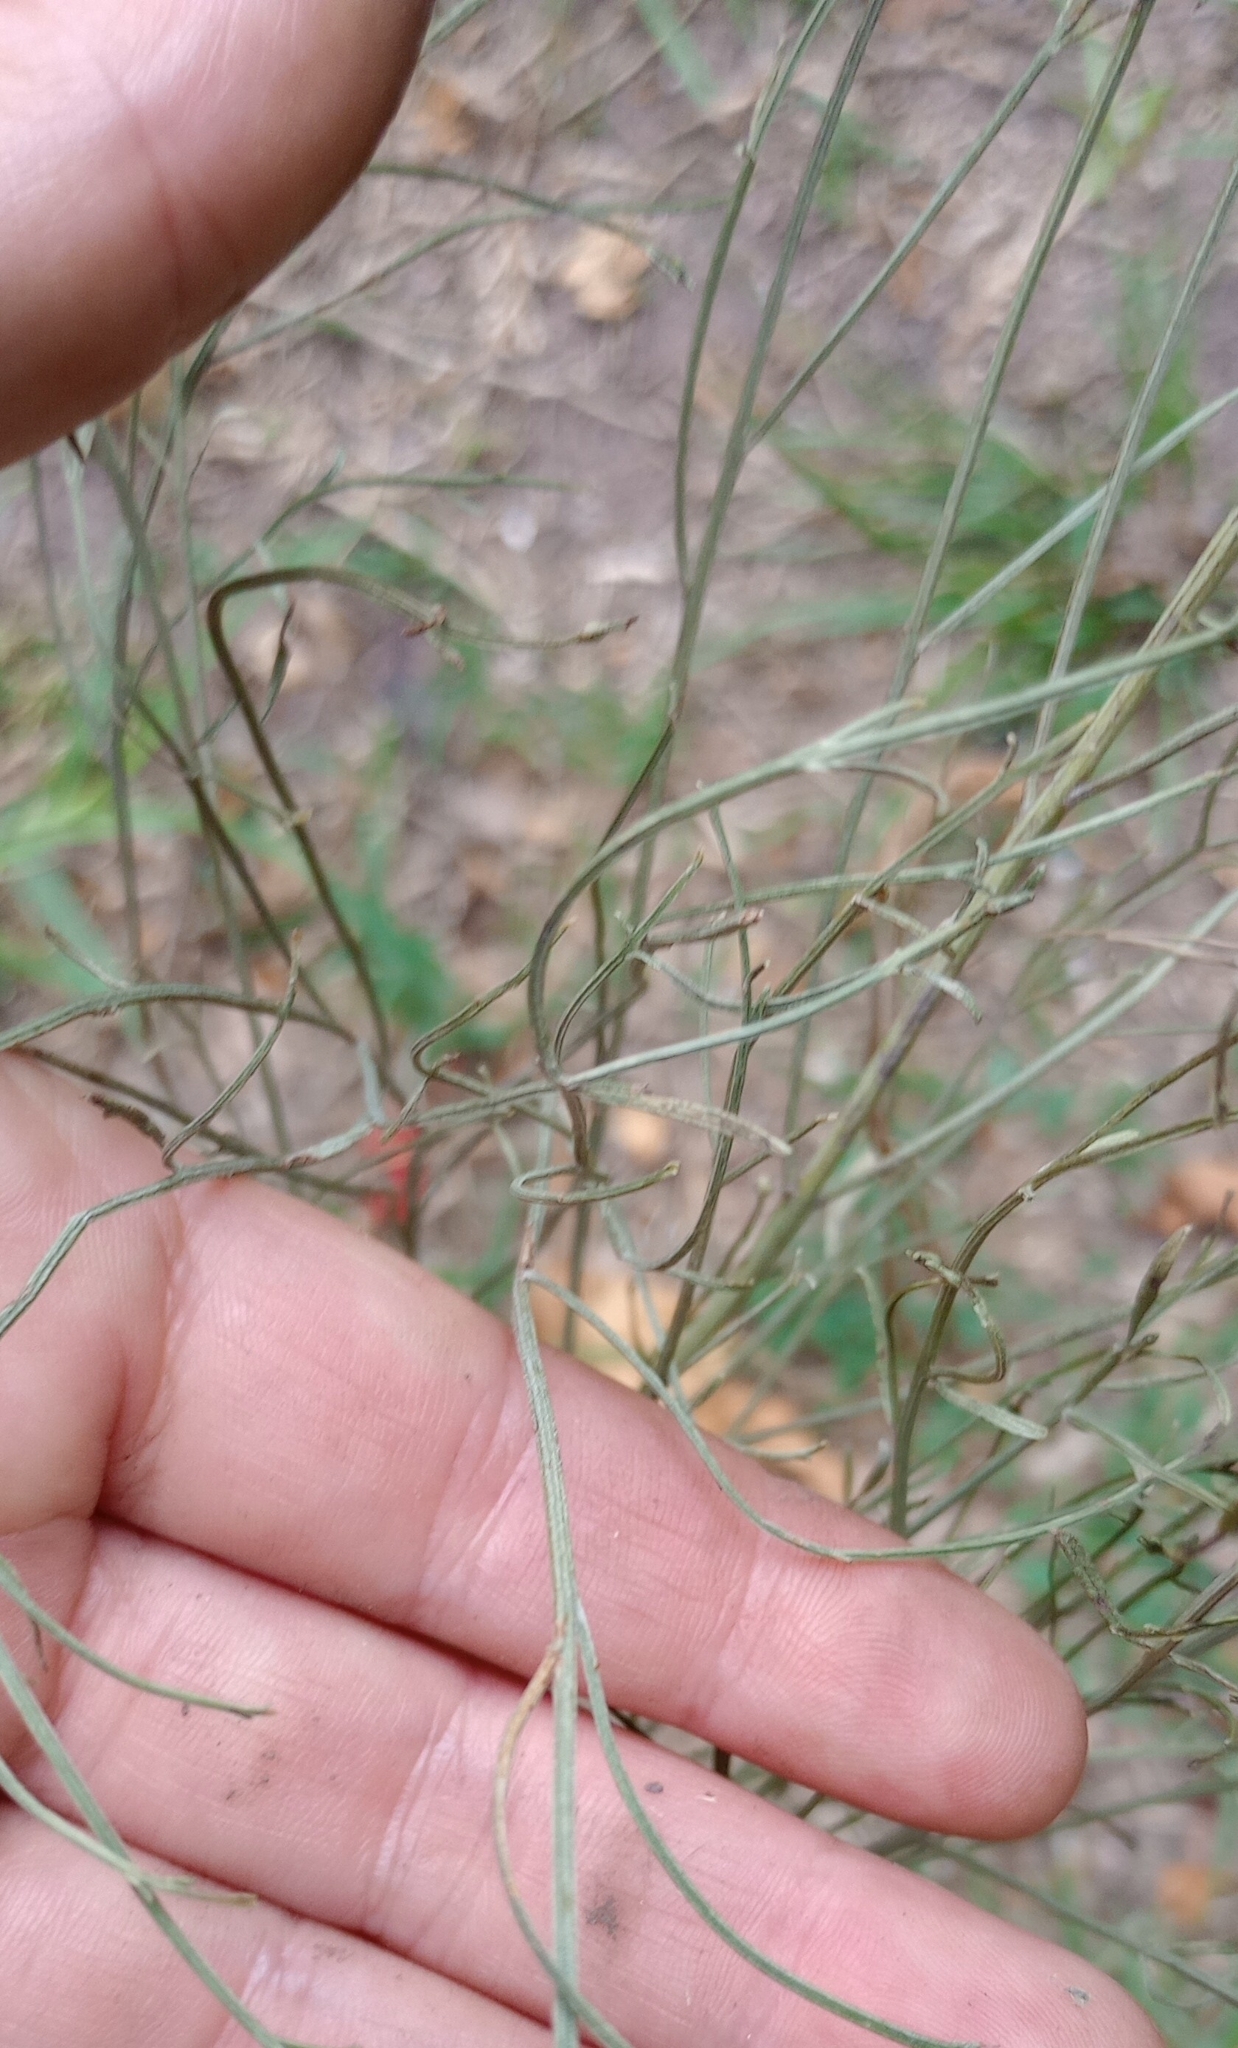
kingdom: Plantae
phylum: Tracheophyta
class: Magnoliopsida
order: Asterales
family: Asteraceae
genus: Baccharis
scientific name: Baccharis notosergila
